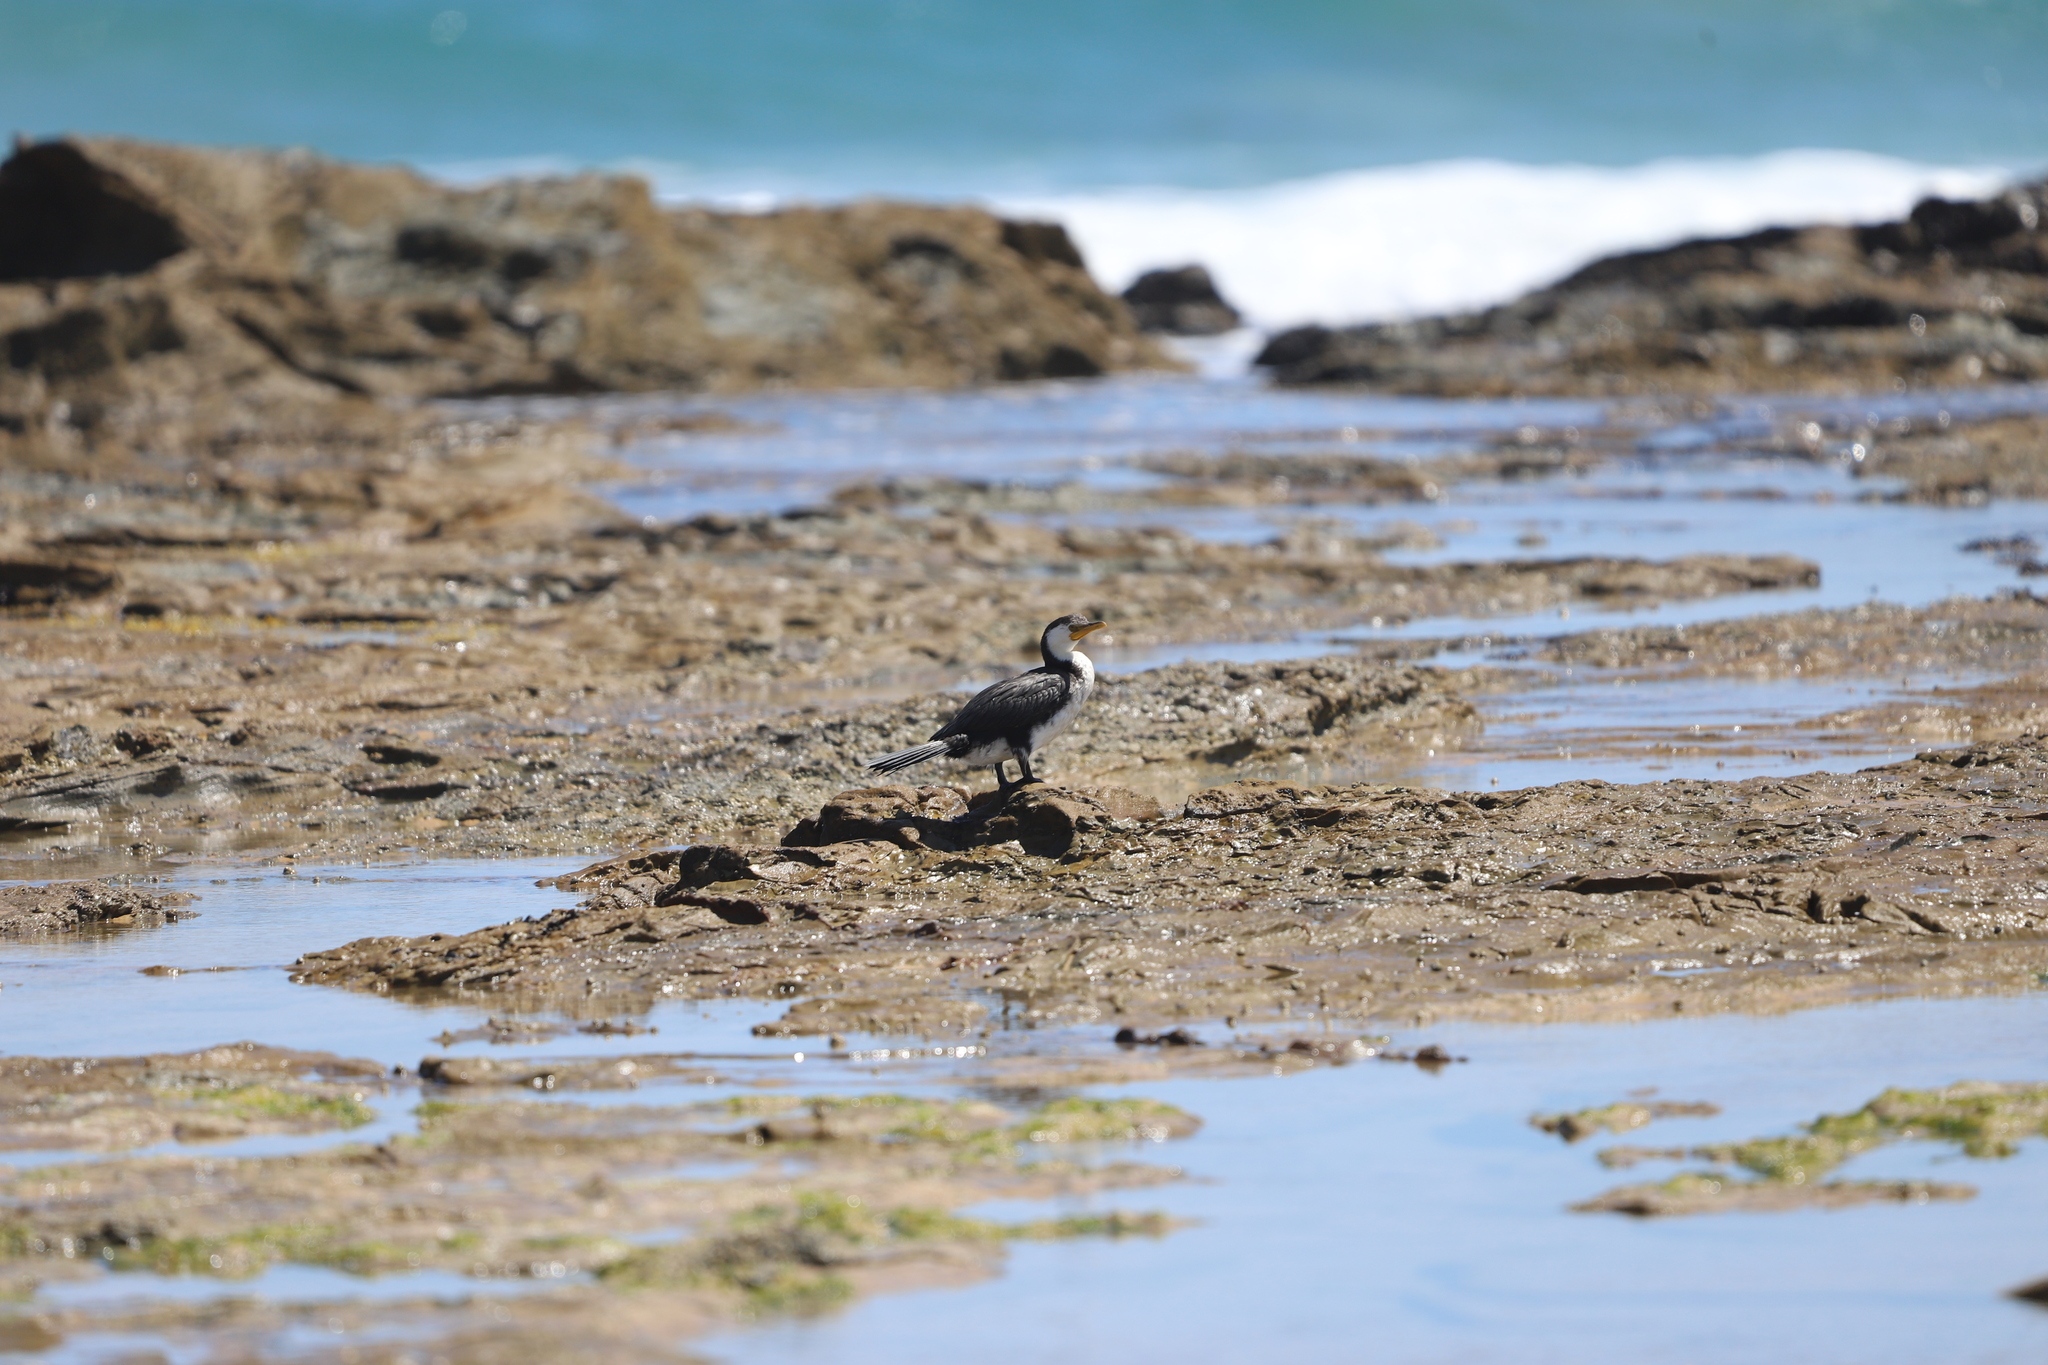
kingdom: Animalia
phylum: Chordata
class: Aves
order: Suliformes
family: Phalacrocoracidae
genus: Microcarbo
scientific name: Microcarbo melanoleucos
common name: Little pied cormorant
